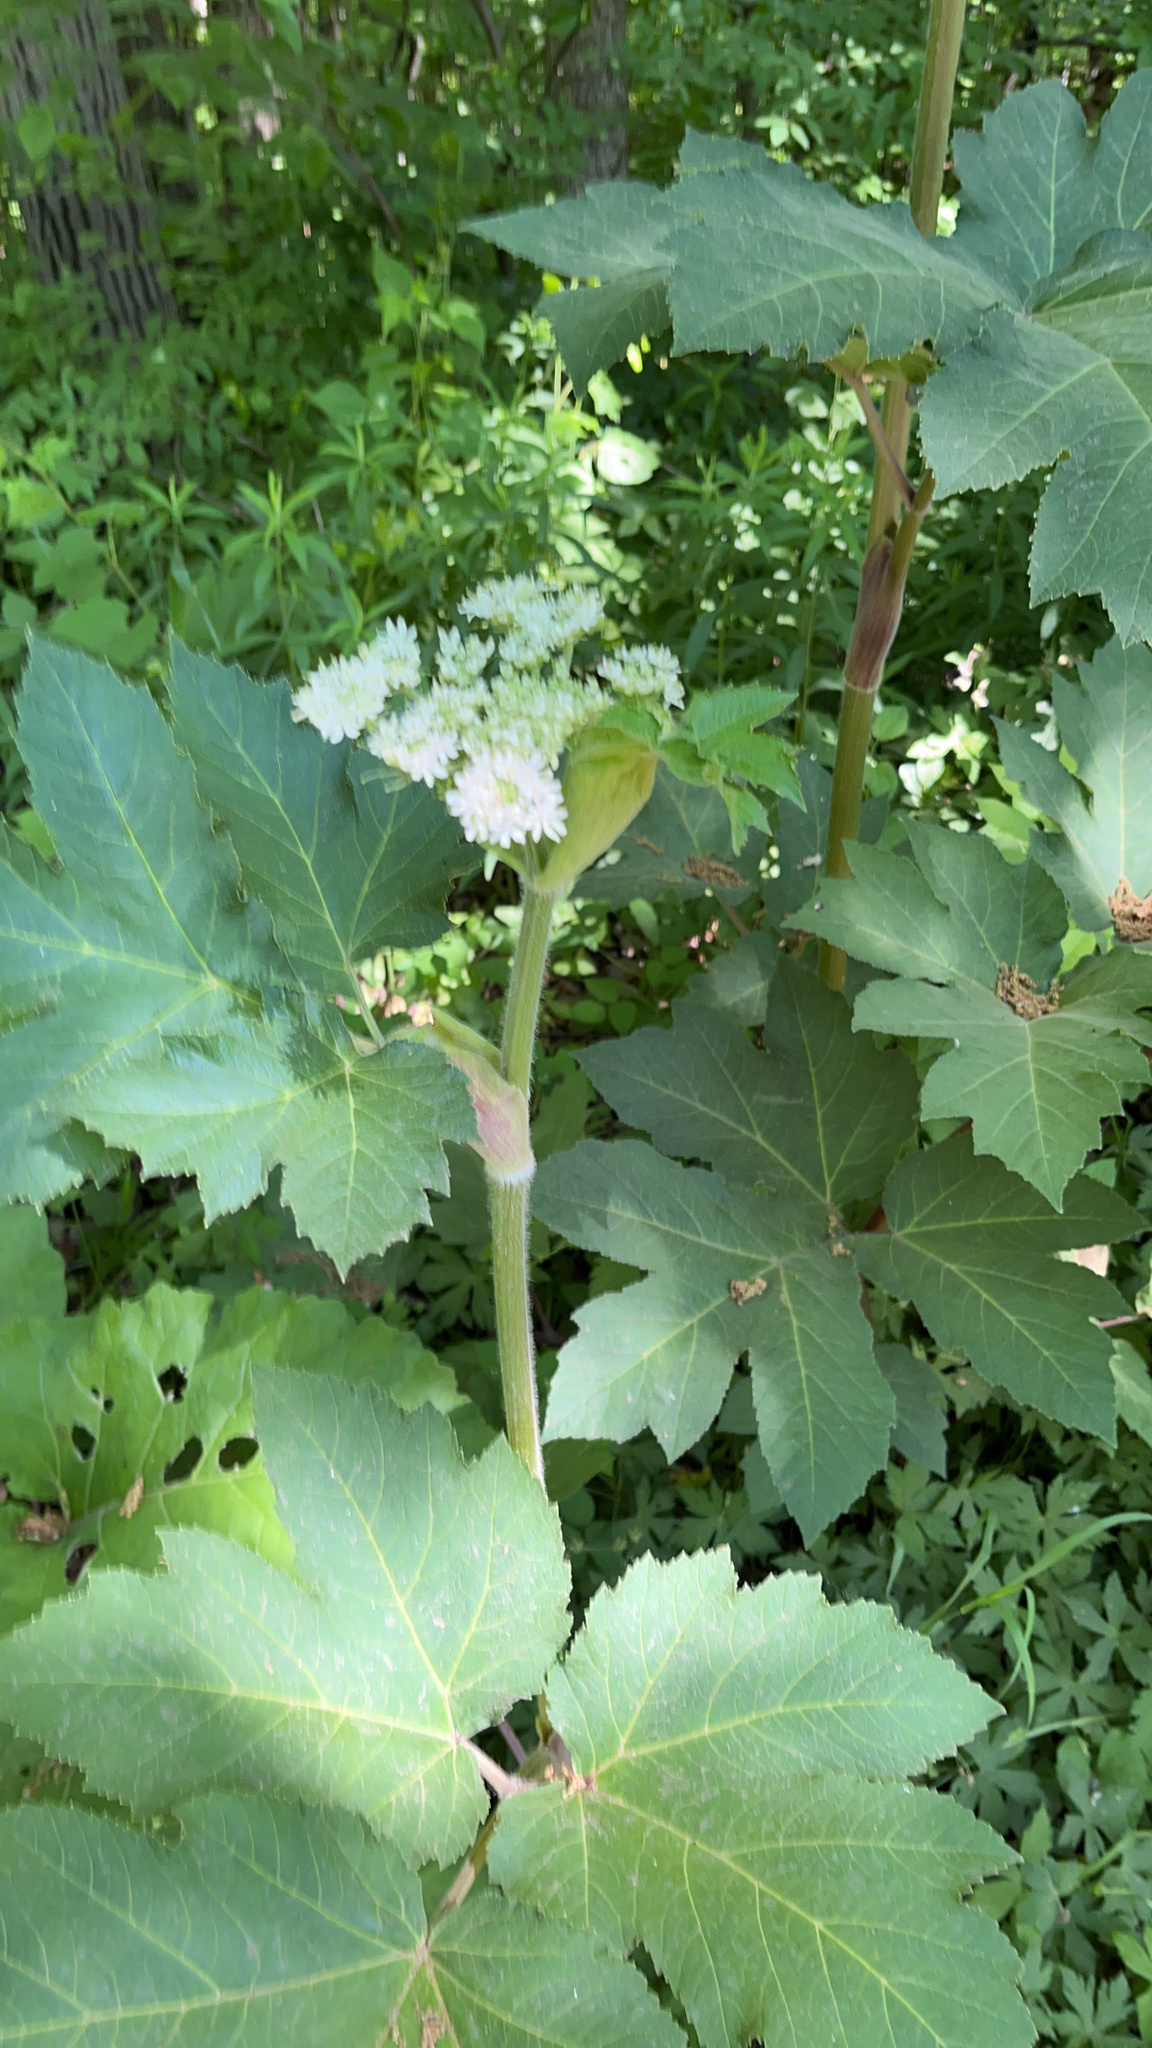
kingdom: Plantae
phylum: Tracheophyta
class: Magnoliopsida
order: Apiales
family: Apiaceae
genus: Heracleum
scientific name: Heracleum maximum
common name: American cow parsnip
